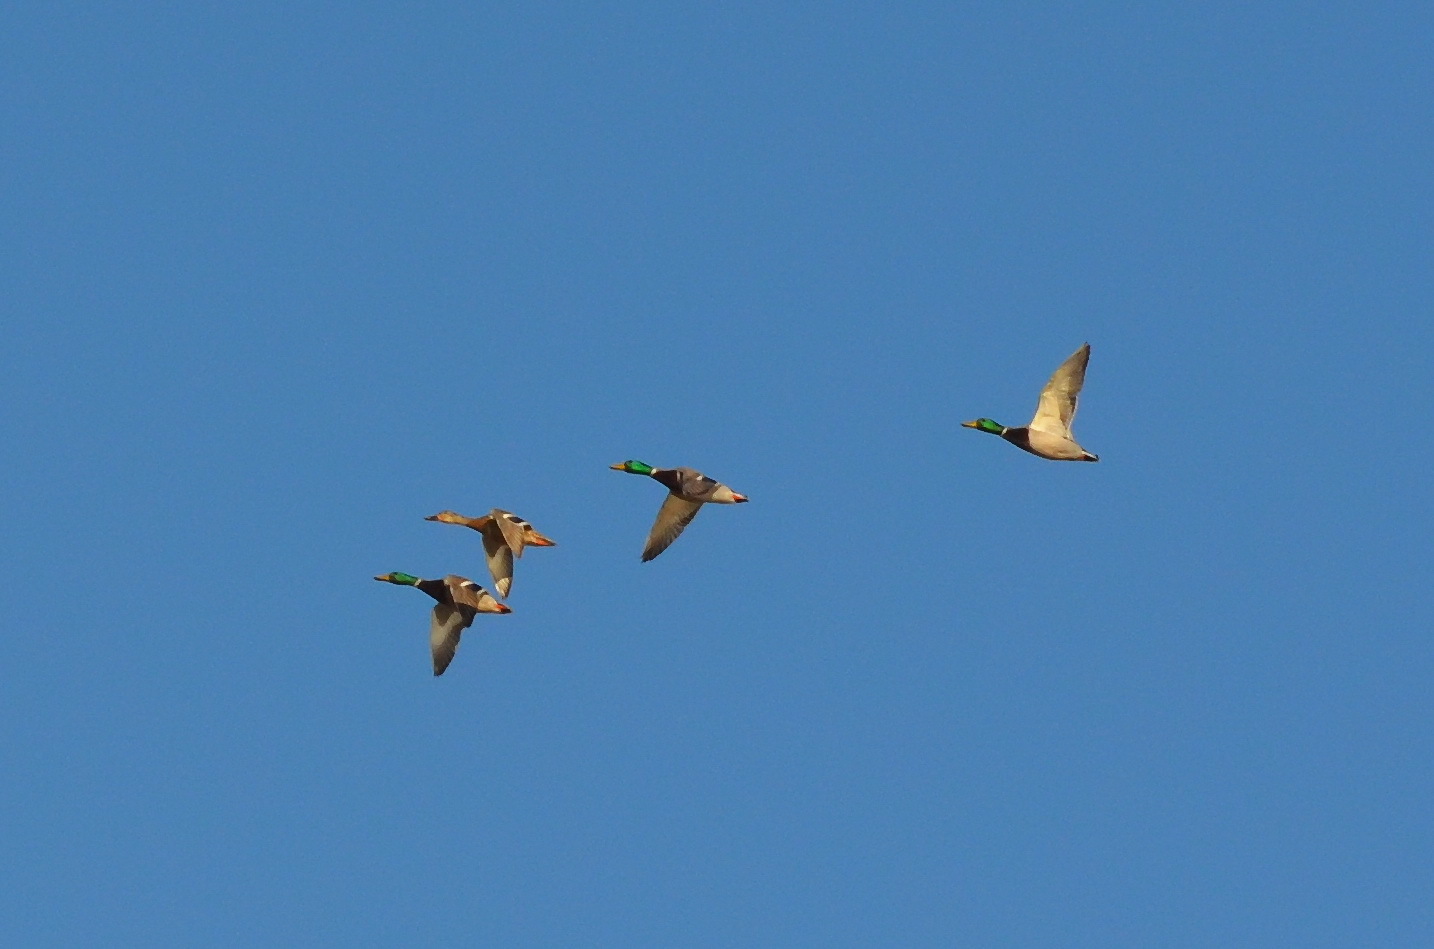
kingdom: Animalia
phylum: Chordata
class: Aves
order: Anseriformes
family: Anatidae
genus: Anas
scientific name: Anas platyrhynchos
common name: Mallard
